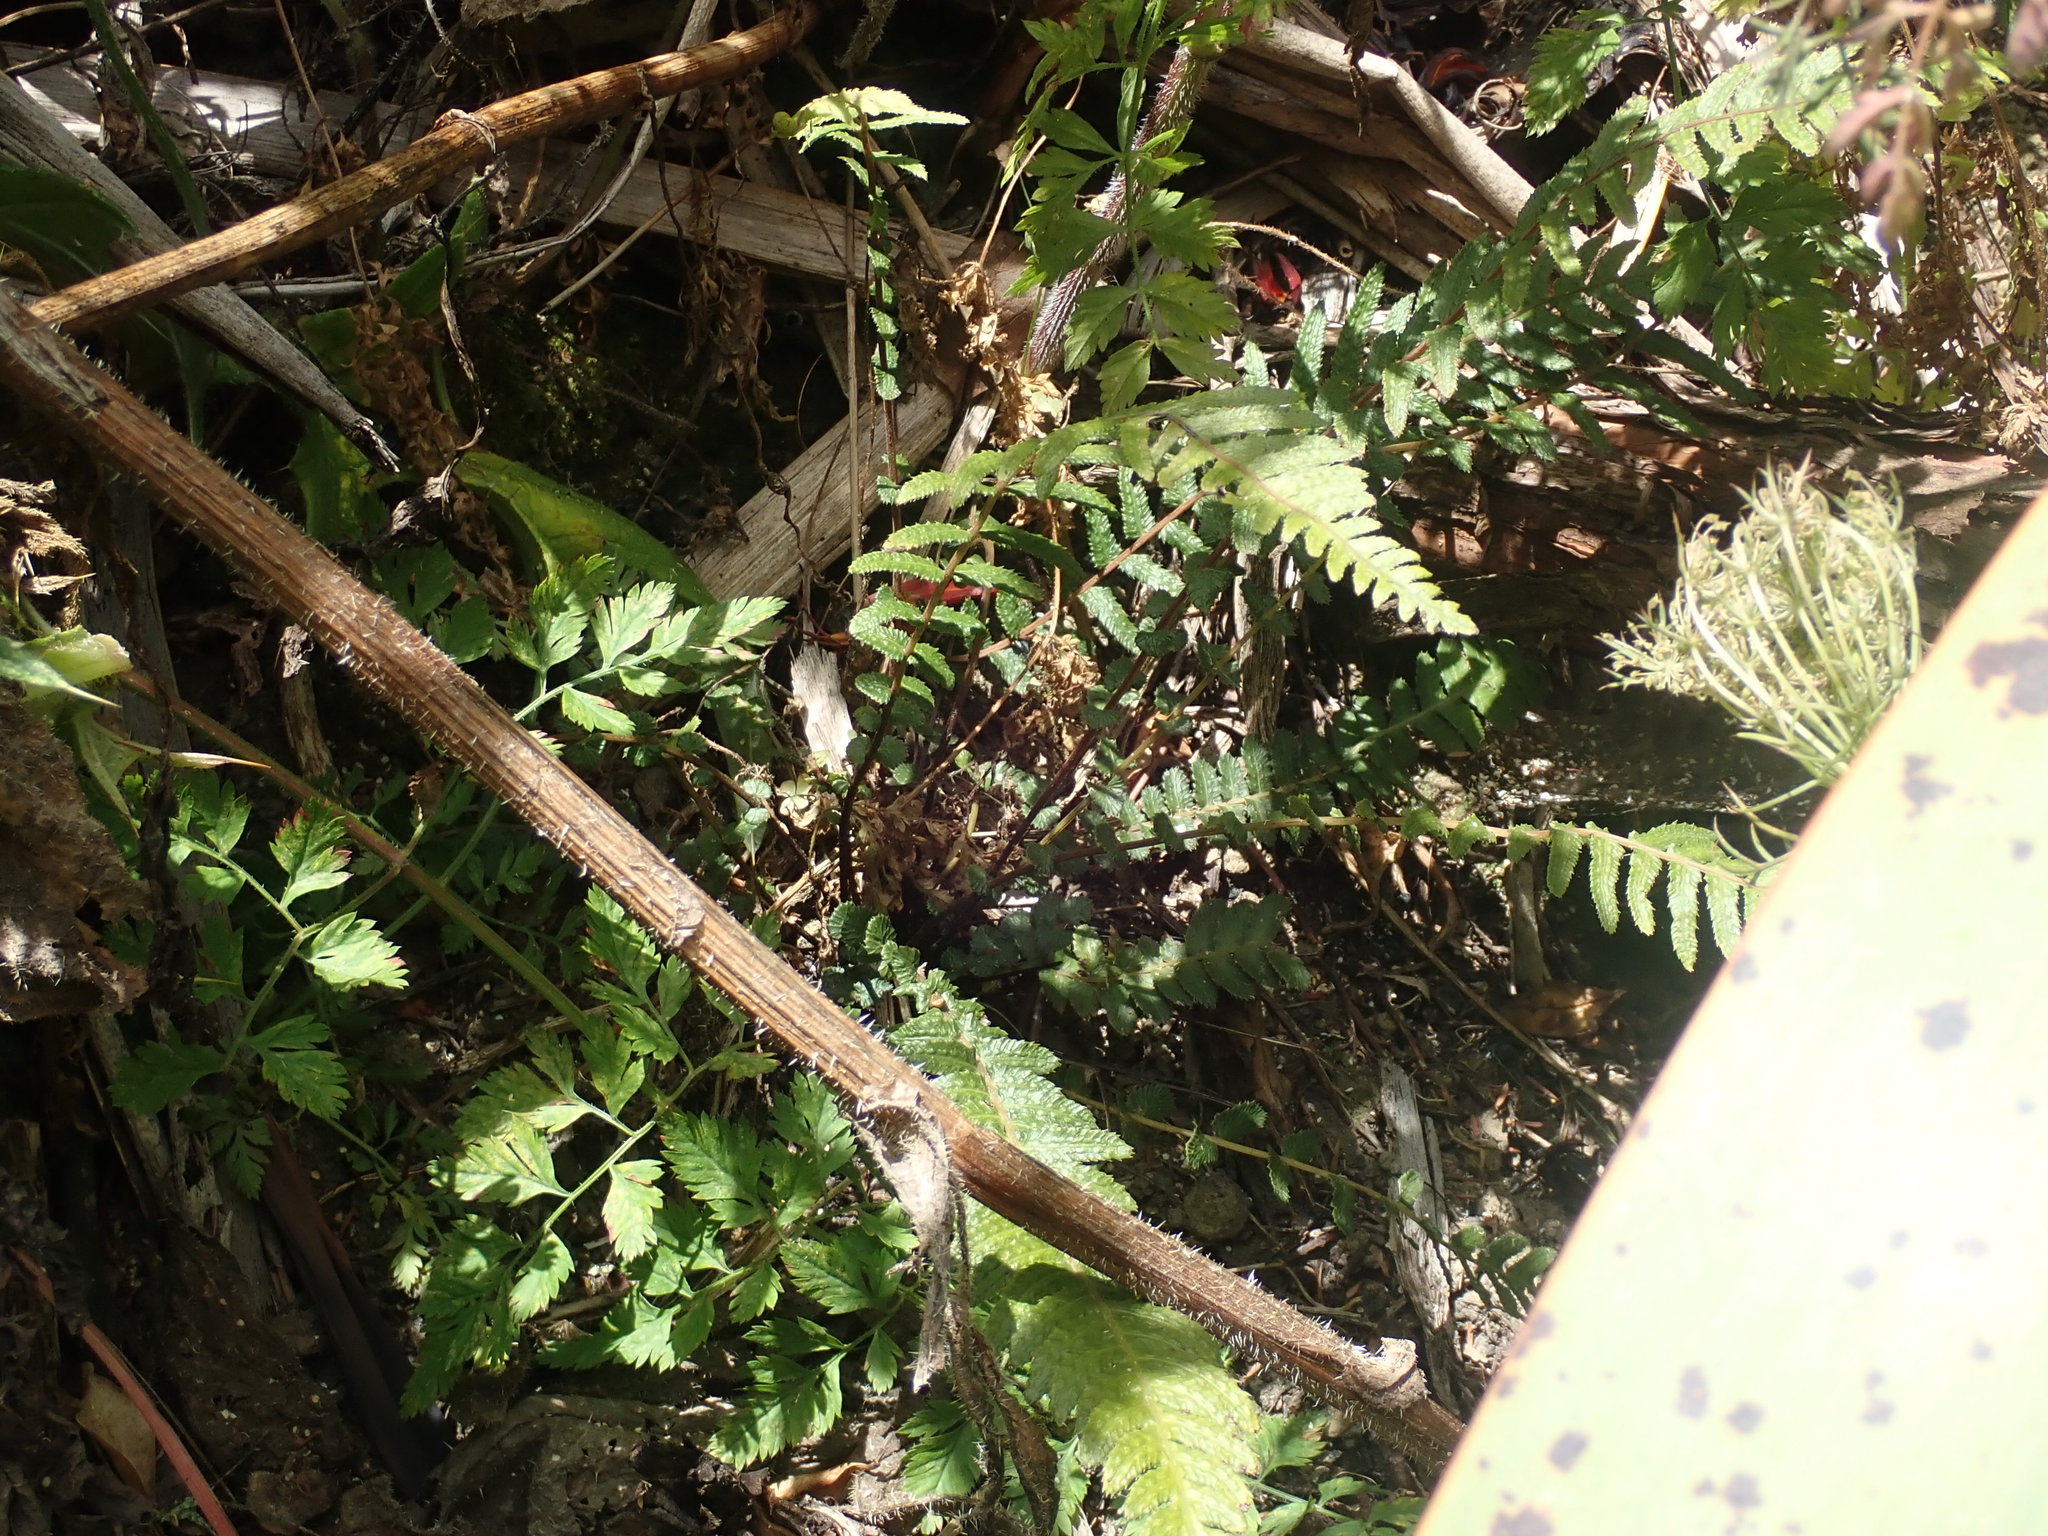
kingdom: Plantae
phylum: Tracheophyta
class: Polypodiopsida
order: Polypodiales
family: Blechnaceae
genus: Doodia
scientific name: Doodia australis
